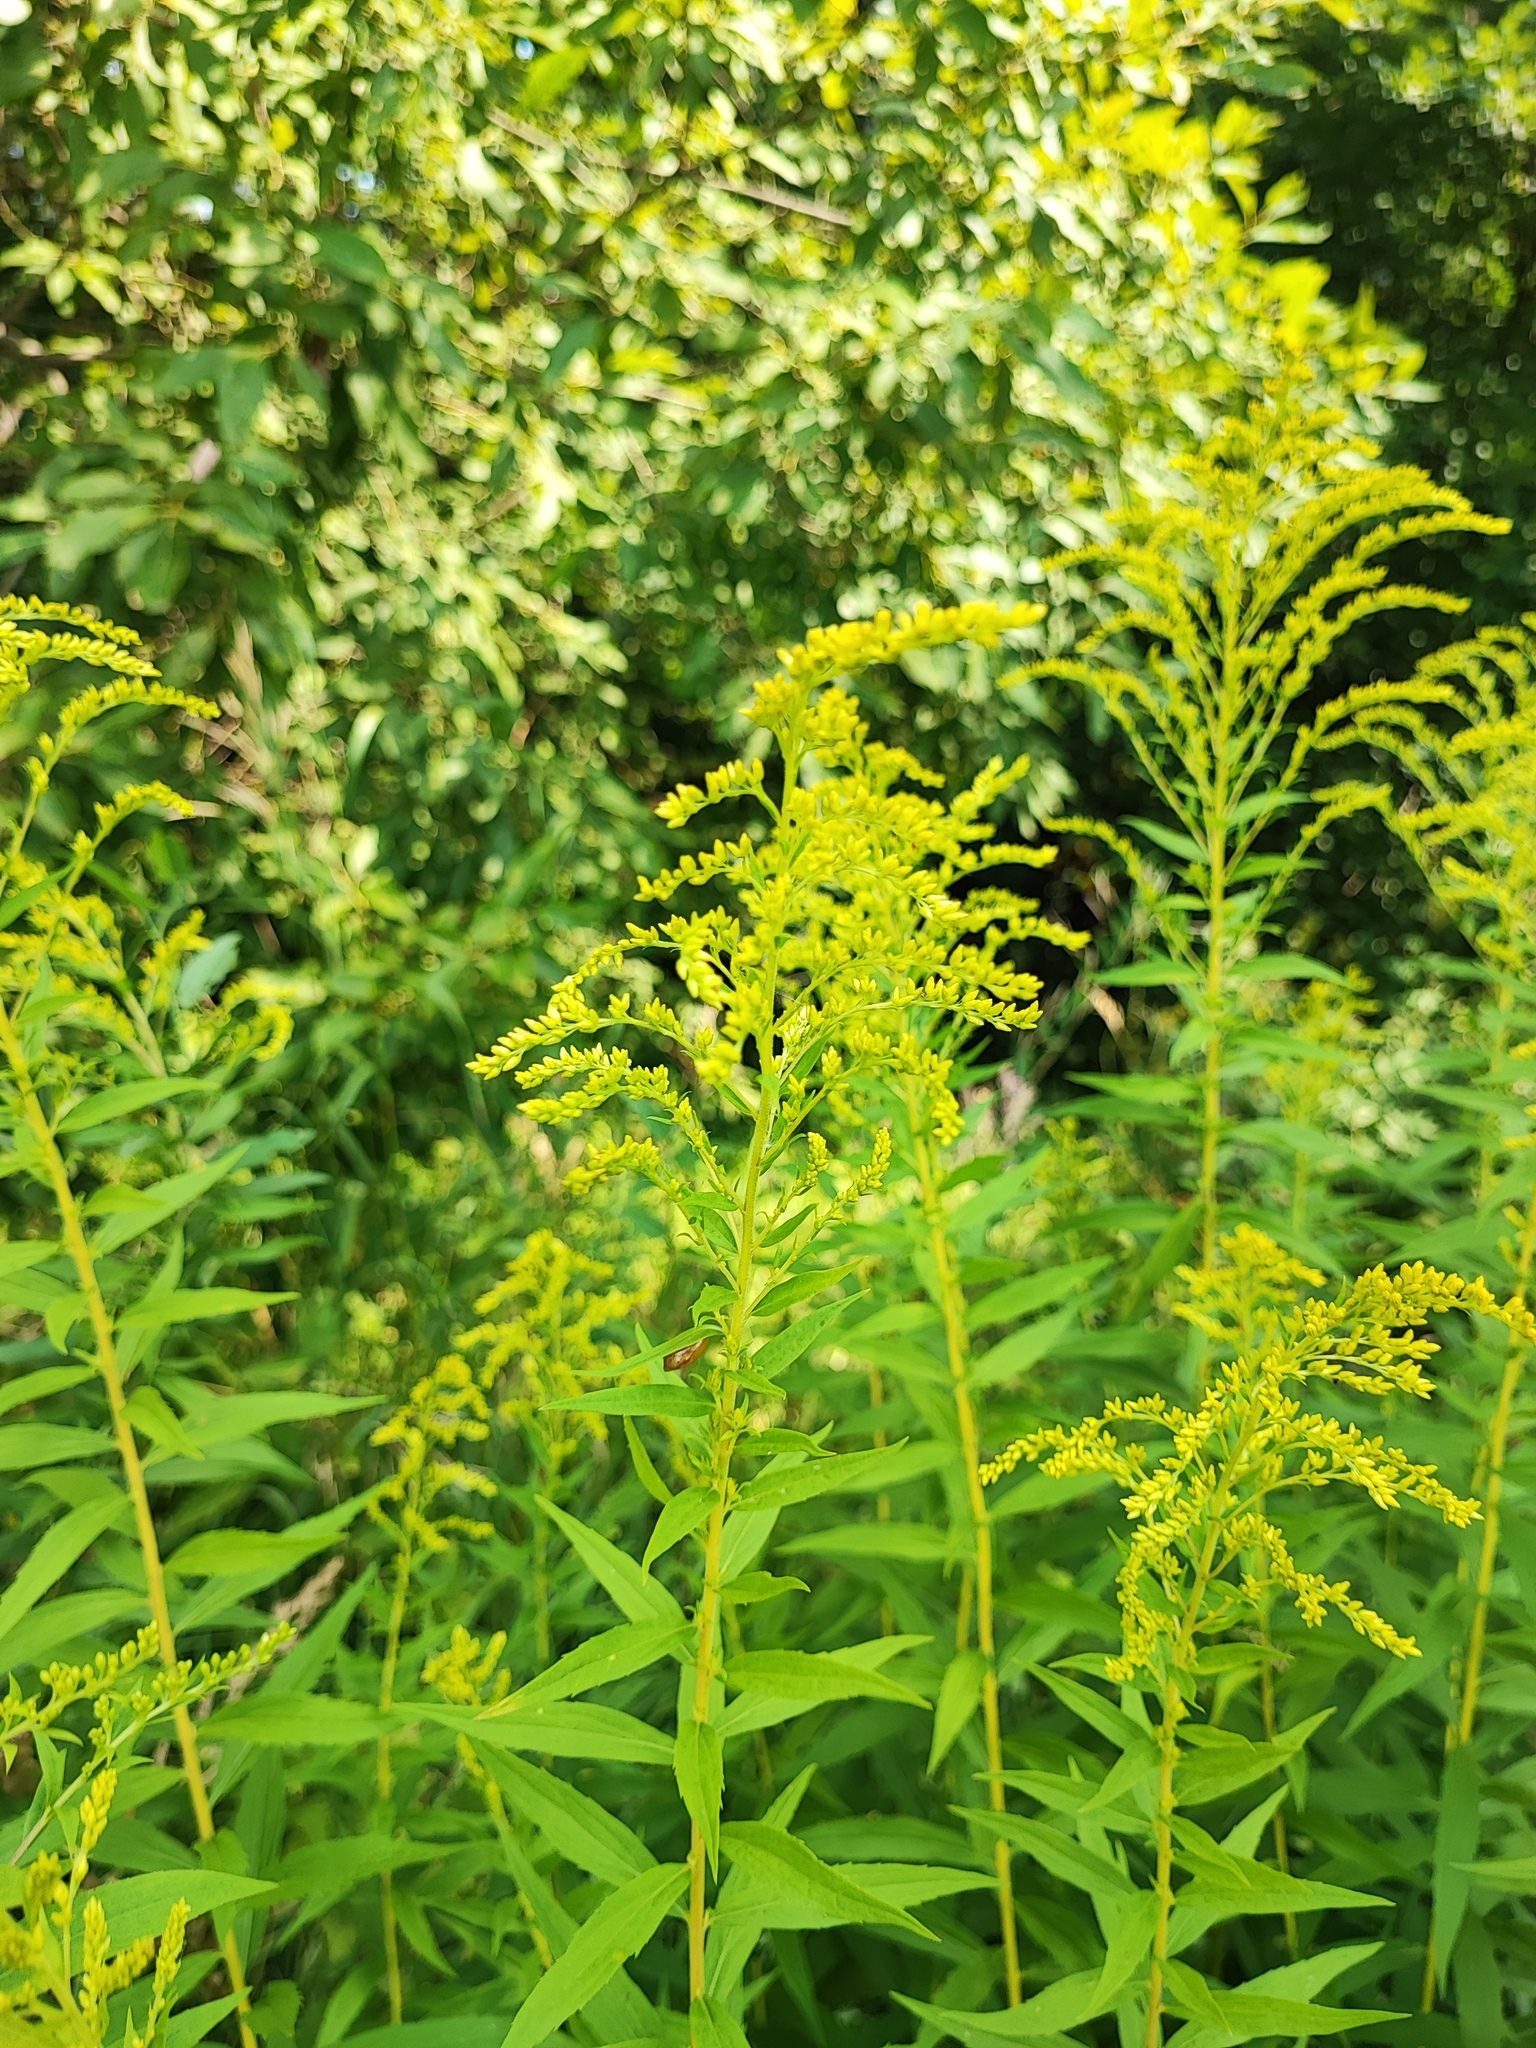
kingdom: Plantae
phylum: Tracheophyta
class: Magnoliopsida
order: Asterales
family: Asteraceae
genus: Solidago
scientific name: Solidago canadensis
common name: Canada goldenrod
